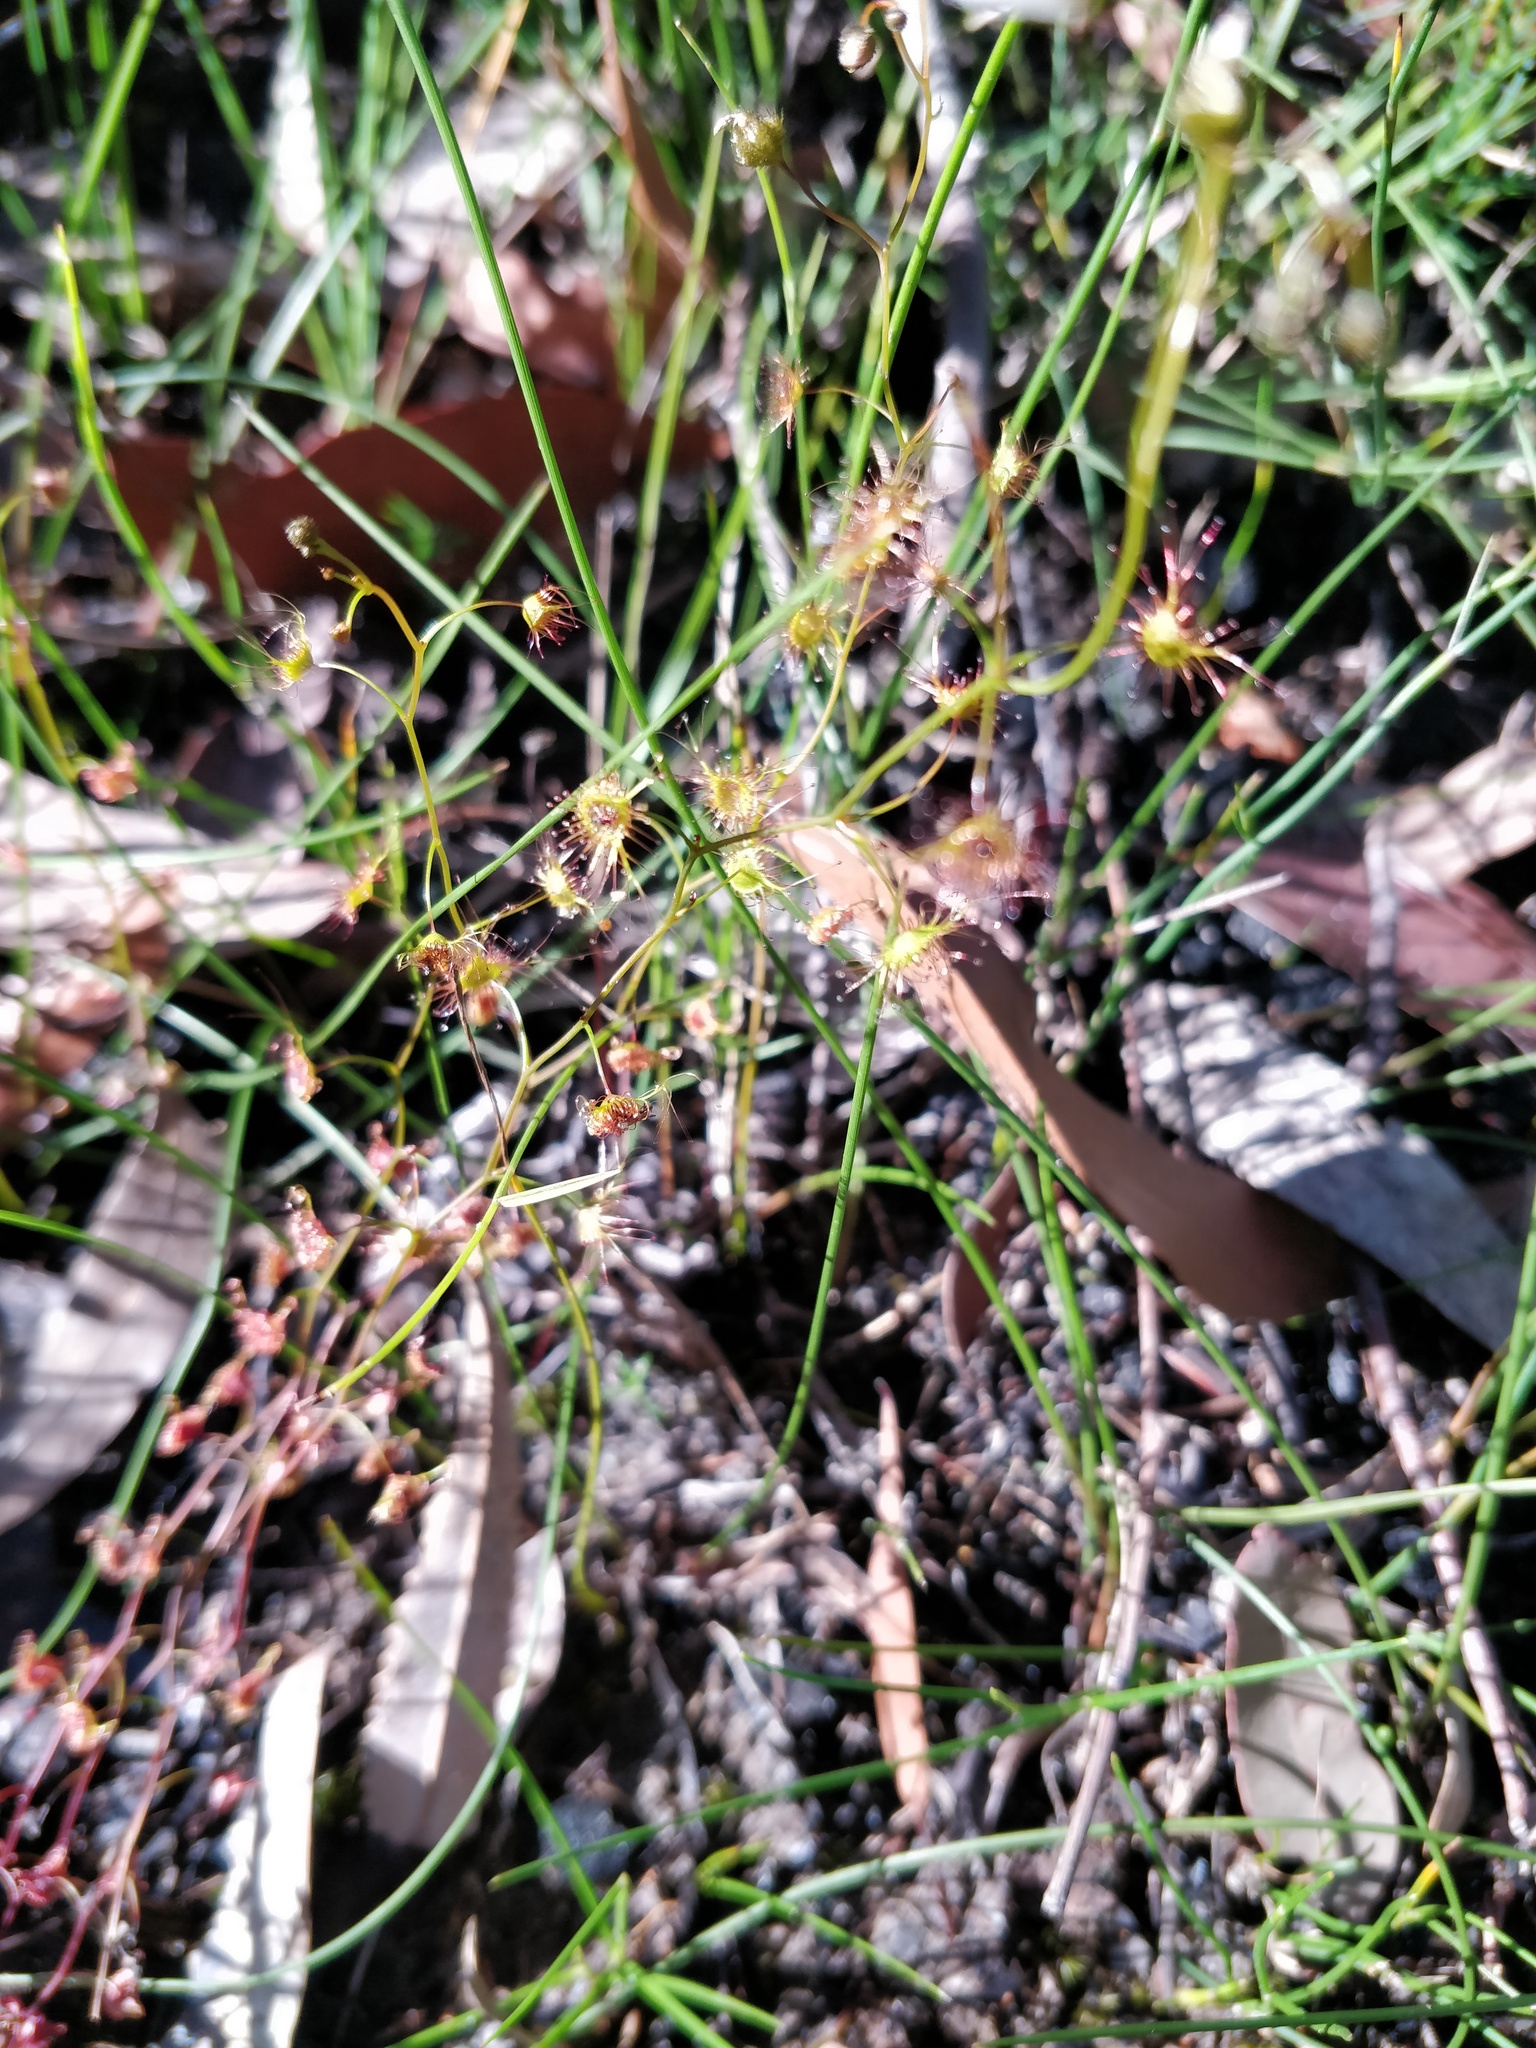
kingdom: Plantae
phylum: Tracheophyta
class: Magnoliopsida
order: Caryophyllales
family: Droseraceae
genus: Drosera
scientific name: Drosera peltata
